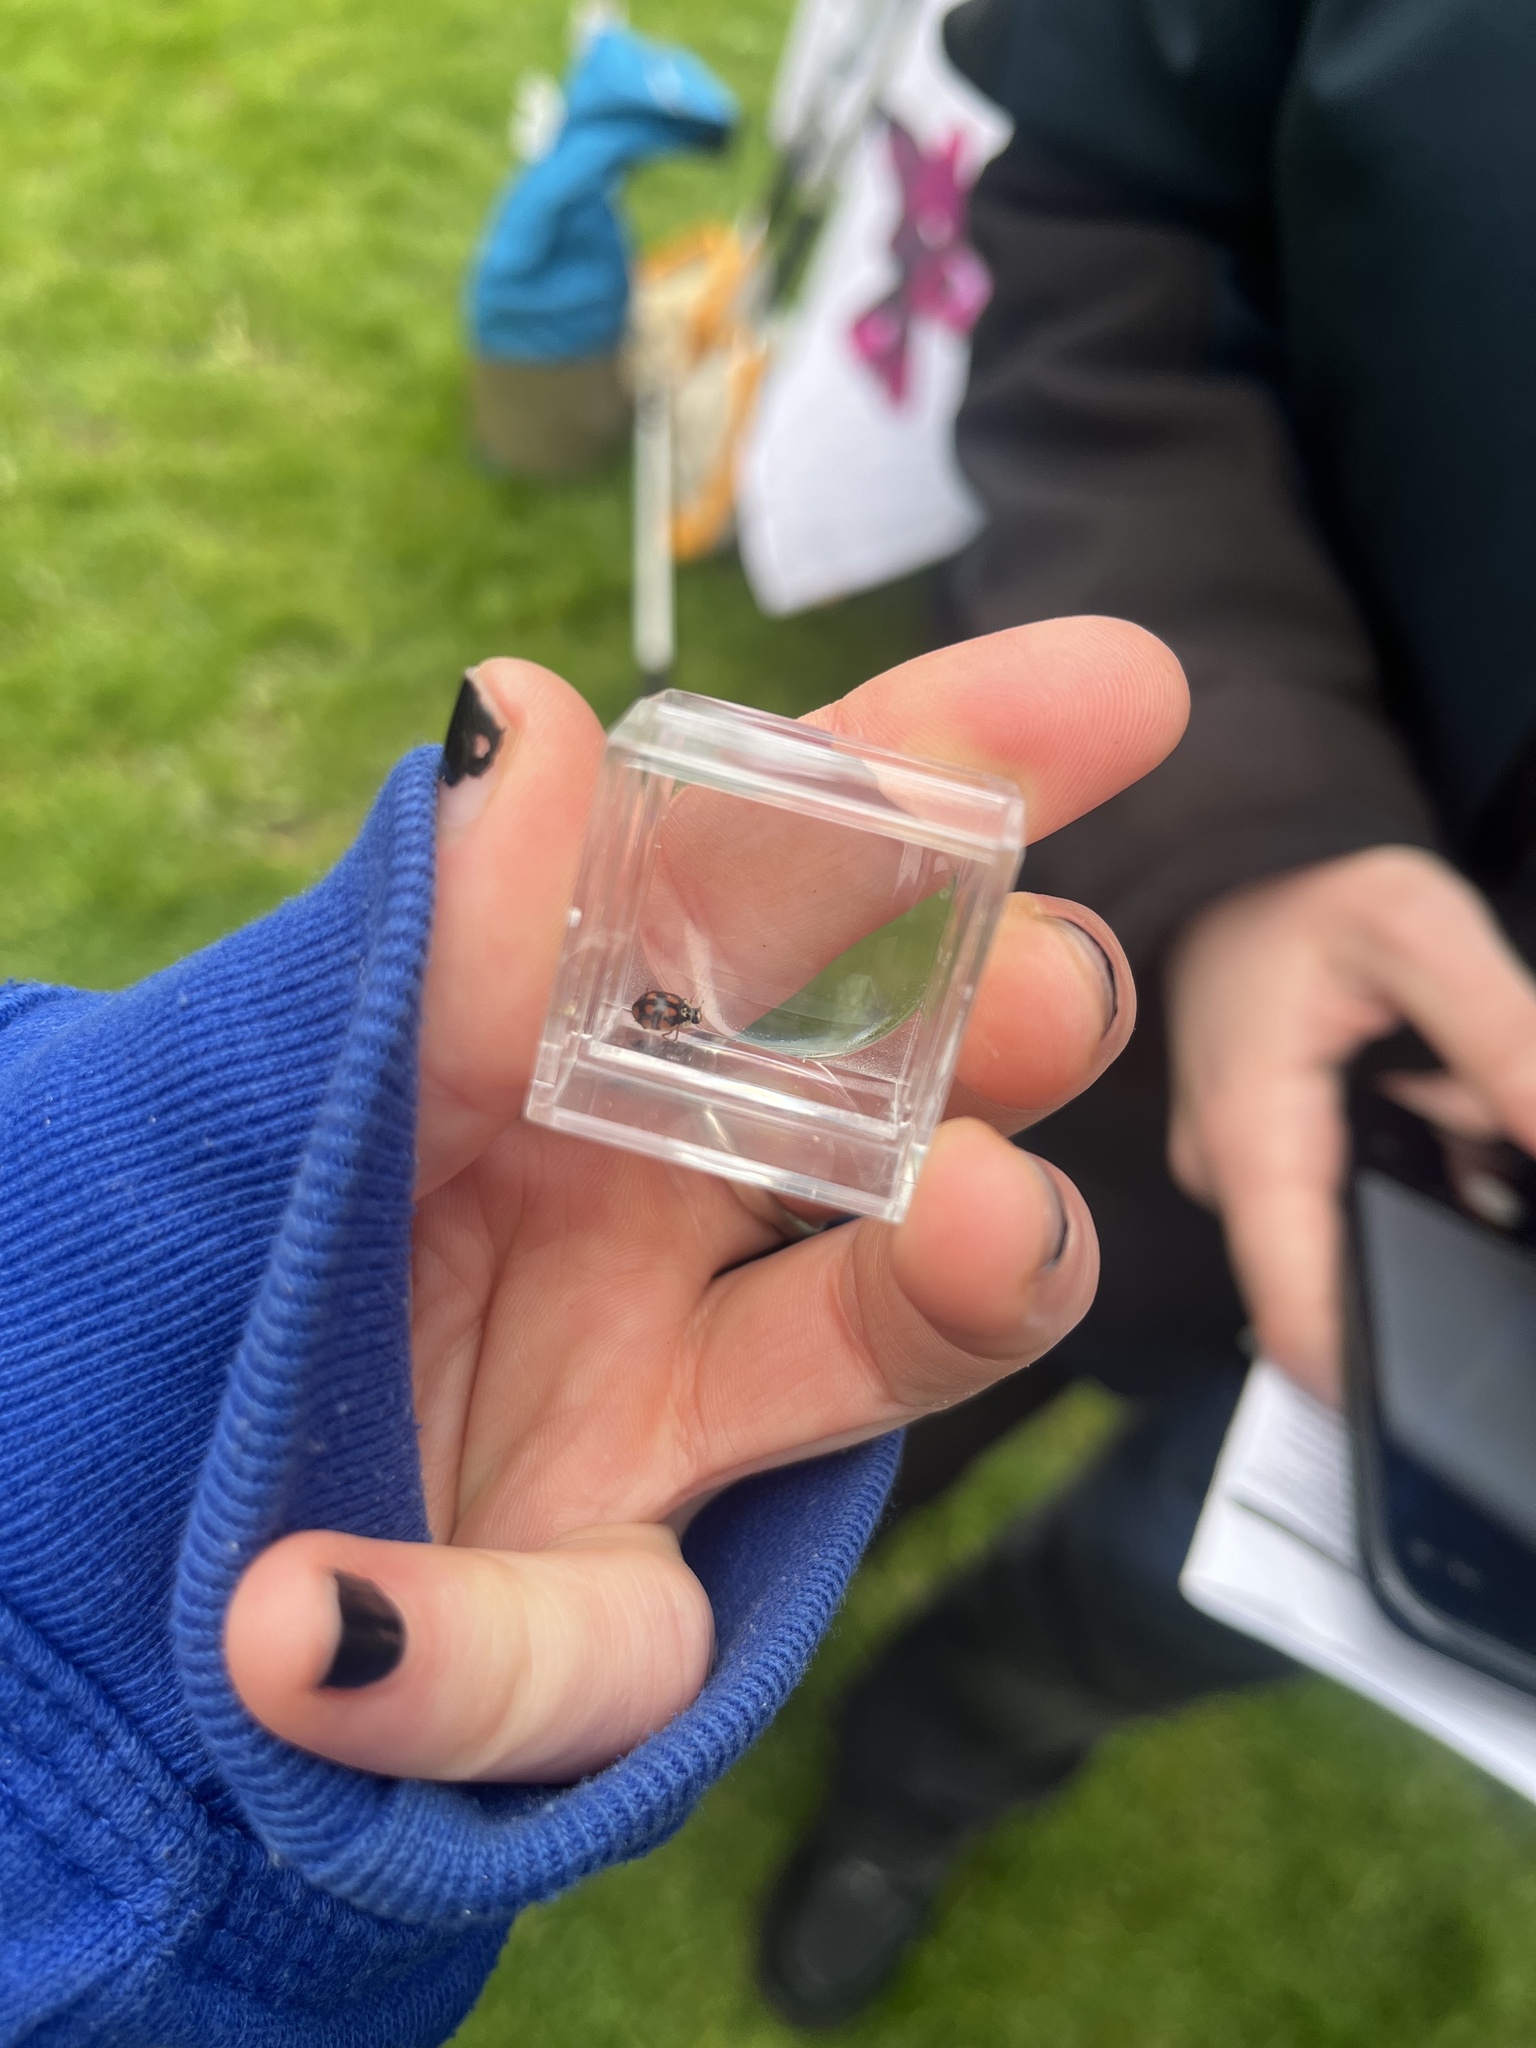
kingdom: Animalia
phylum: Arthropoda
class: Insecta
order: Coleoptera
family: Coccinellidae
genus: Adalia
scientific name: Adalia decempunctata
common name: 10-spot ladybird
